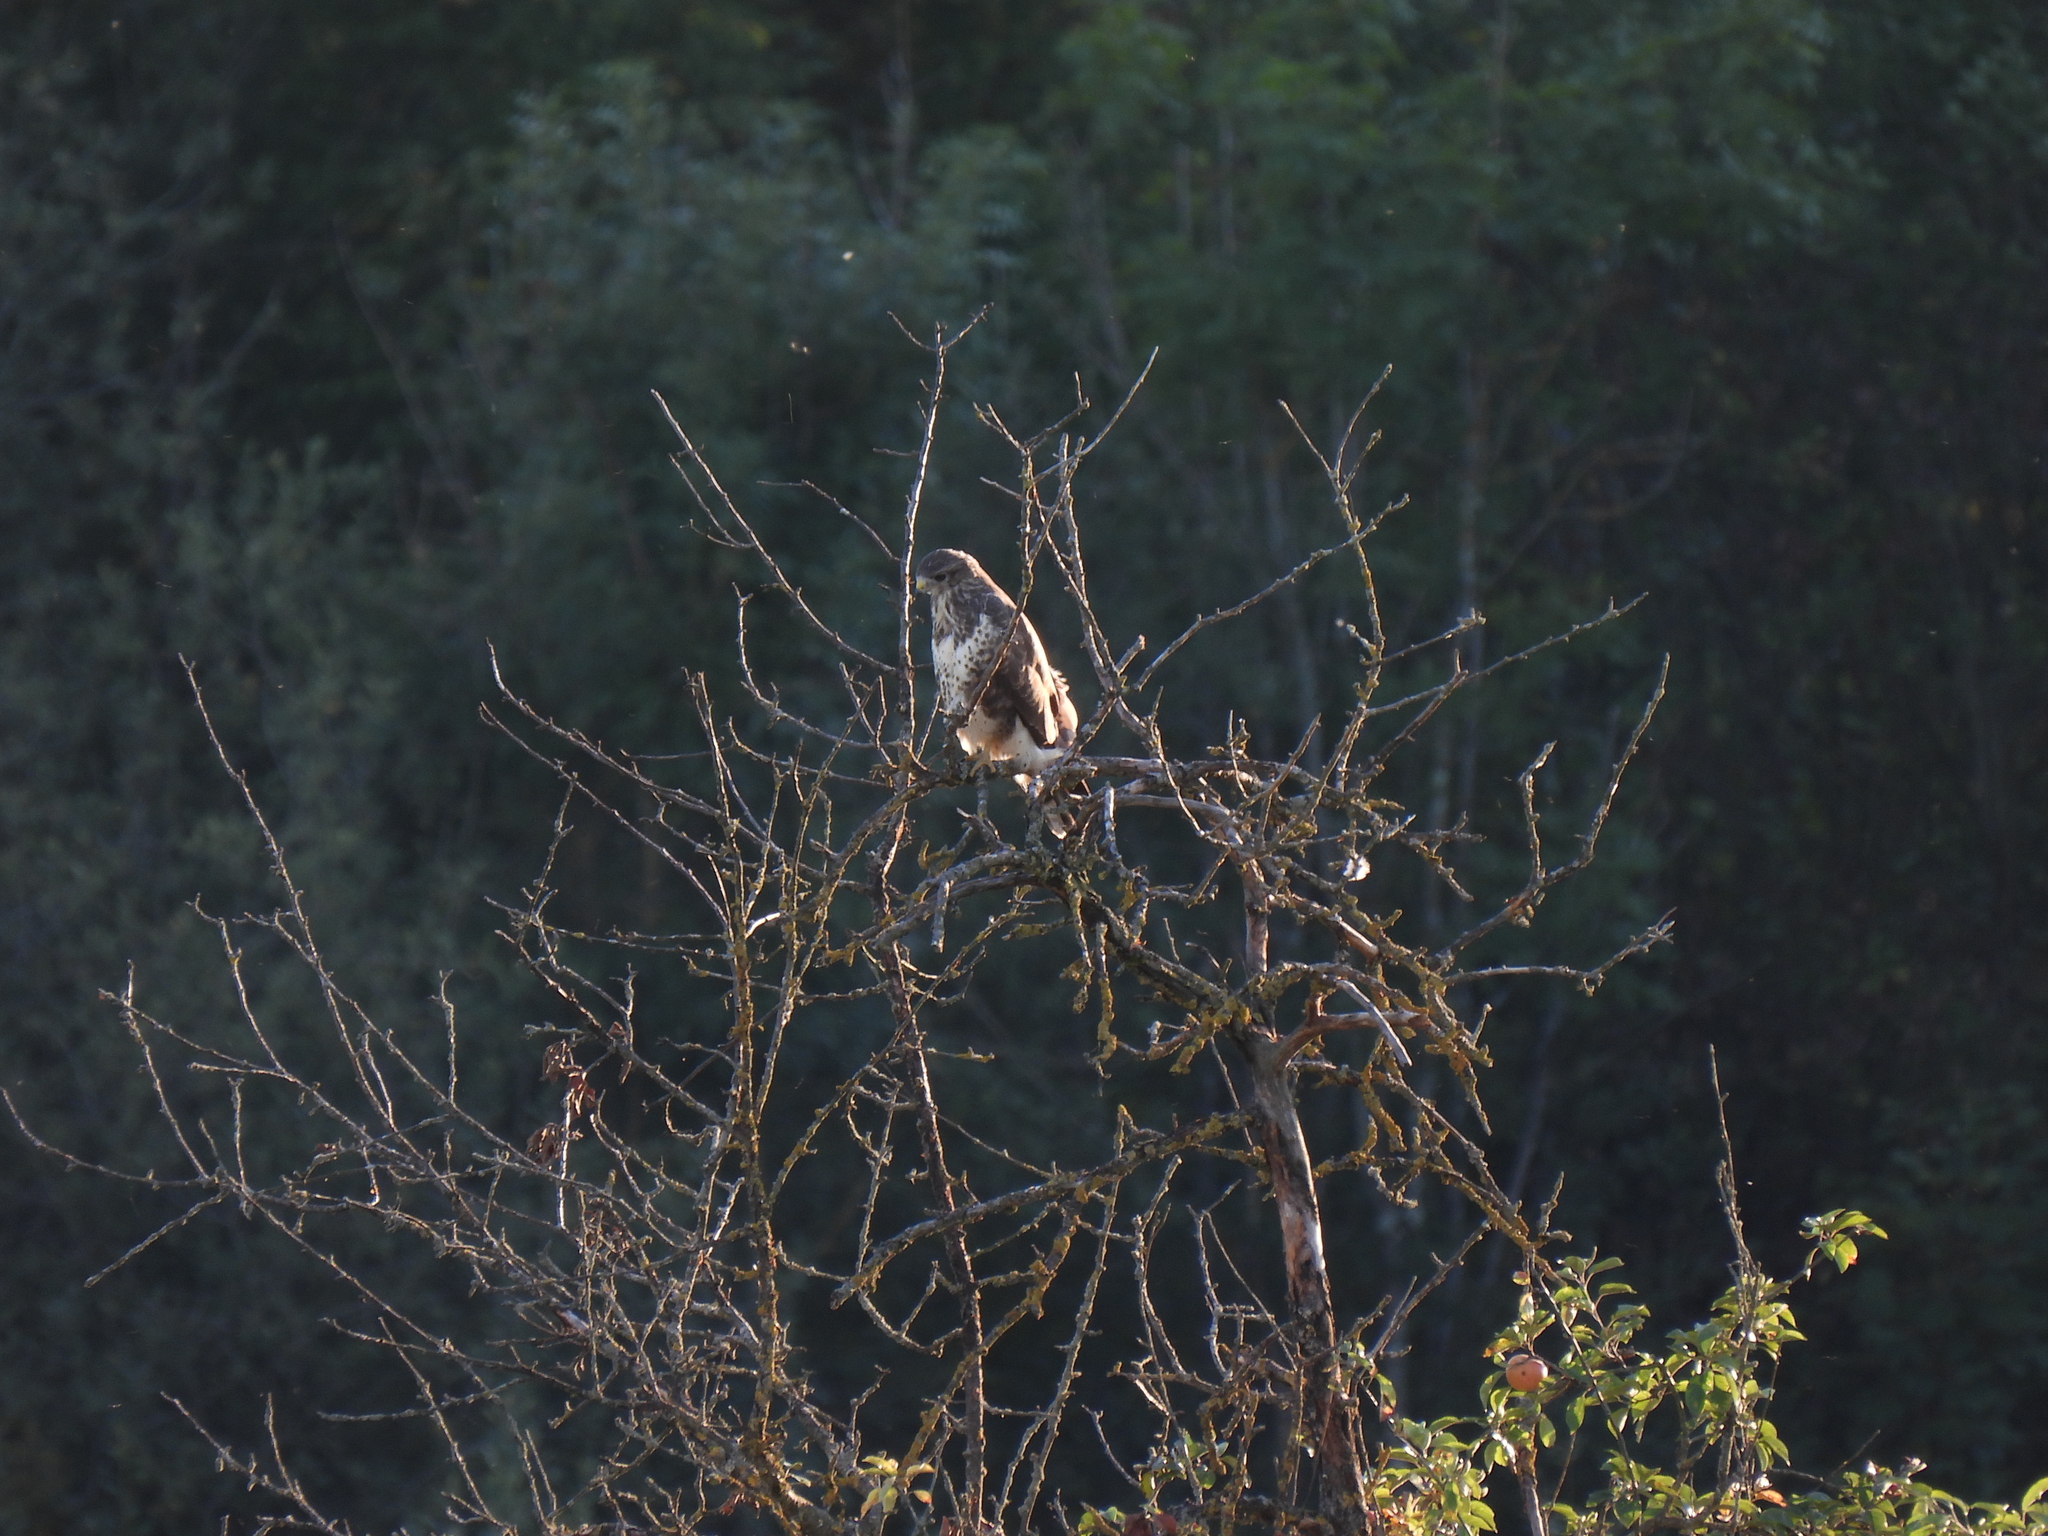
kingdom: Animalia
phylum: Chordata
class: Aves
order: Accipitriformes
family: Accipitridae
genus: Buteo
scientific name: Buteo buteo
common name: Common buzzard
